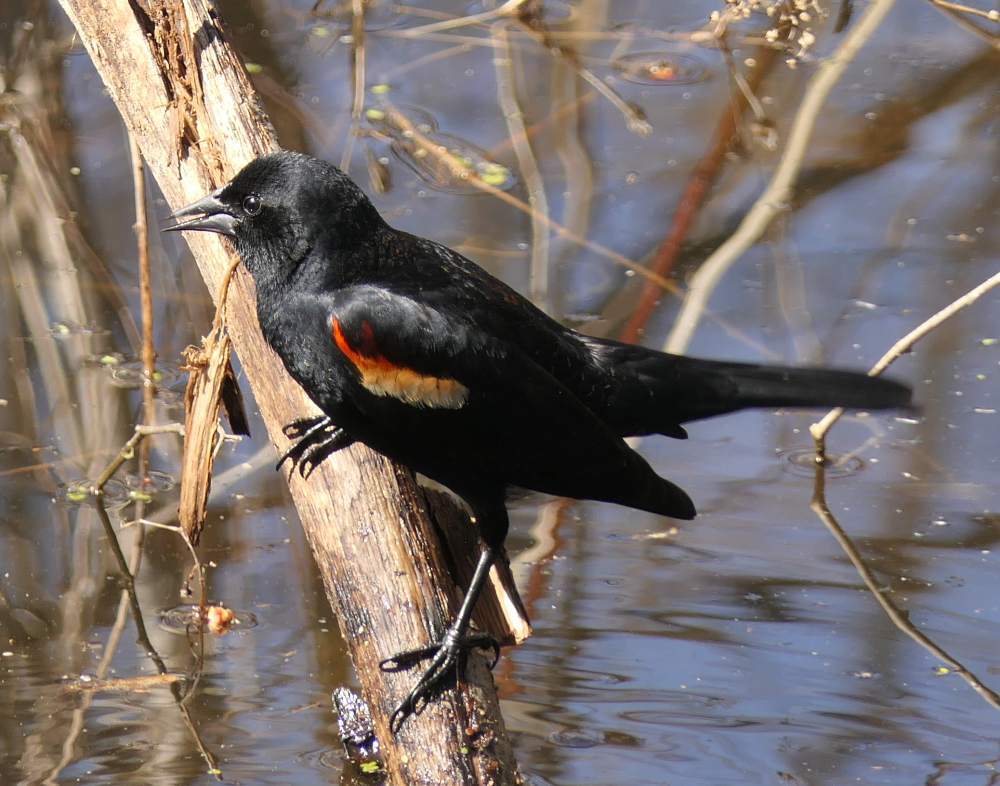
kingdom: Animalia
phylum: Chordata
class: Aves
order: Passeriformes
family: Icteridae
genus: Agelaius
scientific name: Agelaius phoeniceus
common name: Red-winged blackbird
